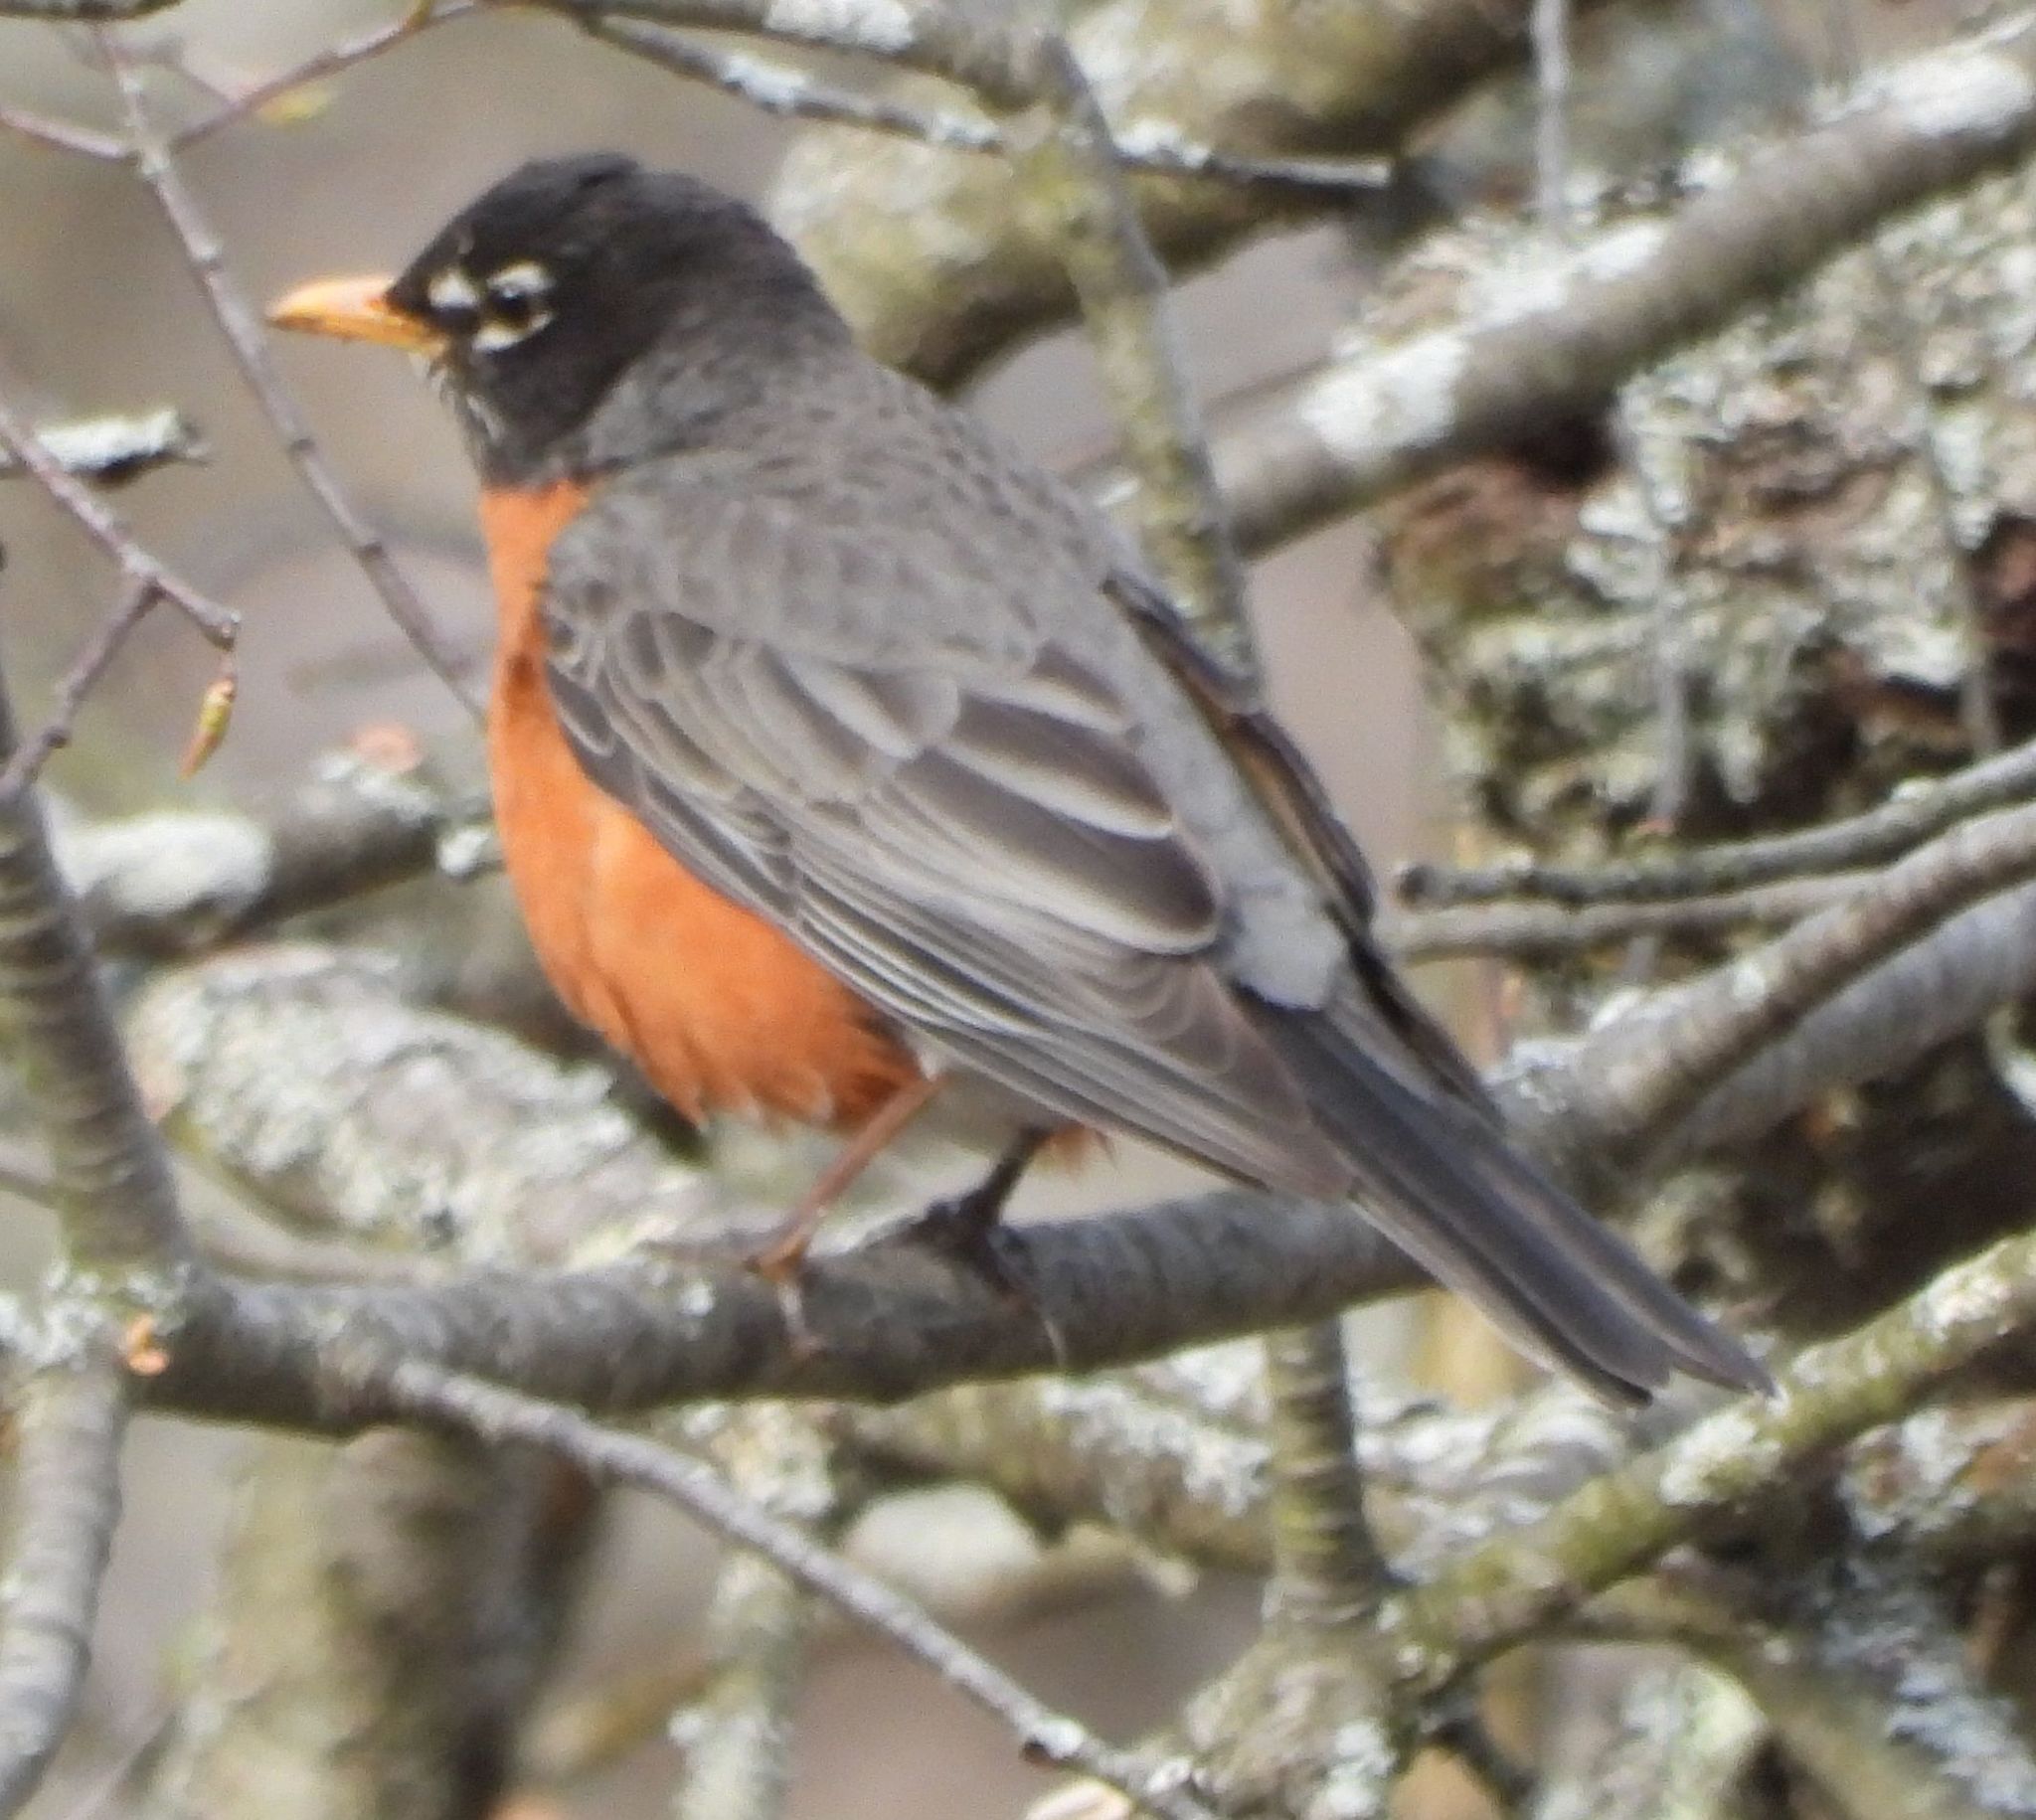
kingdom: Animalia
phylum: Chordata
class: Aves
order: Passeriformes
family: Turdidae
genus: Turdus
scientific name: Turdus migratorius
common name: American robin
